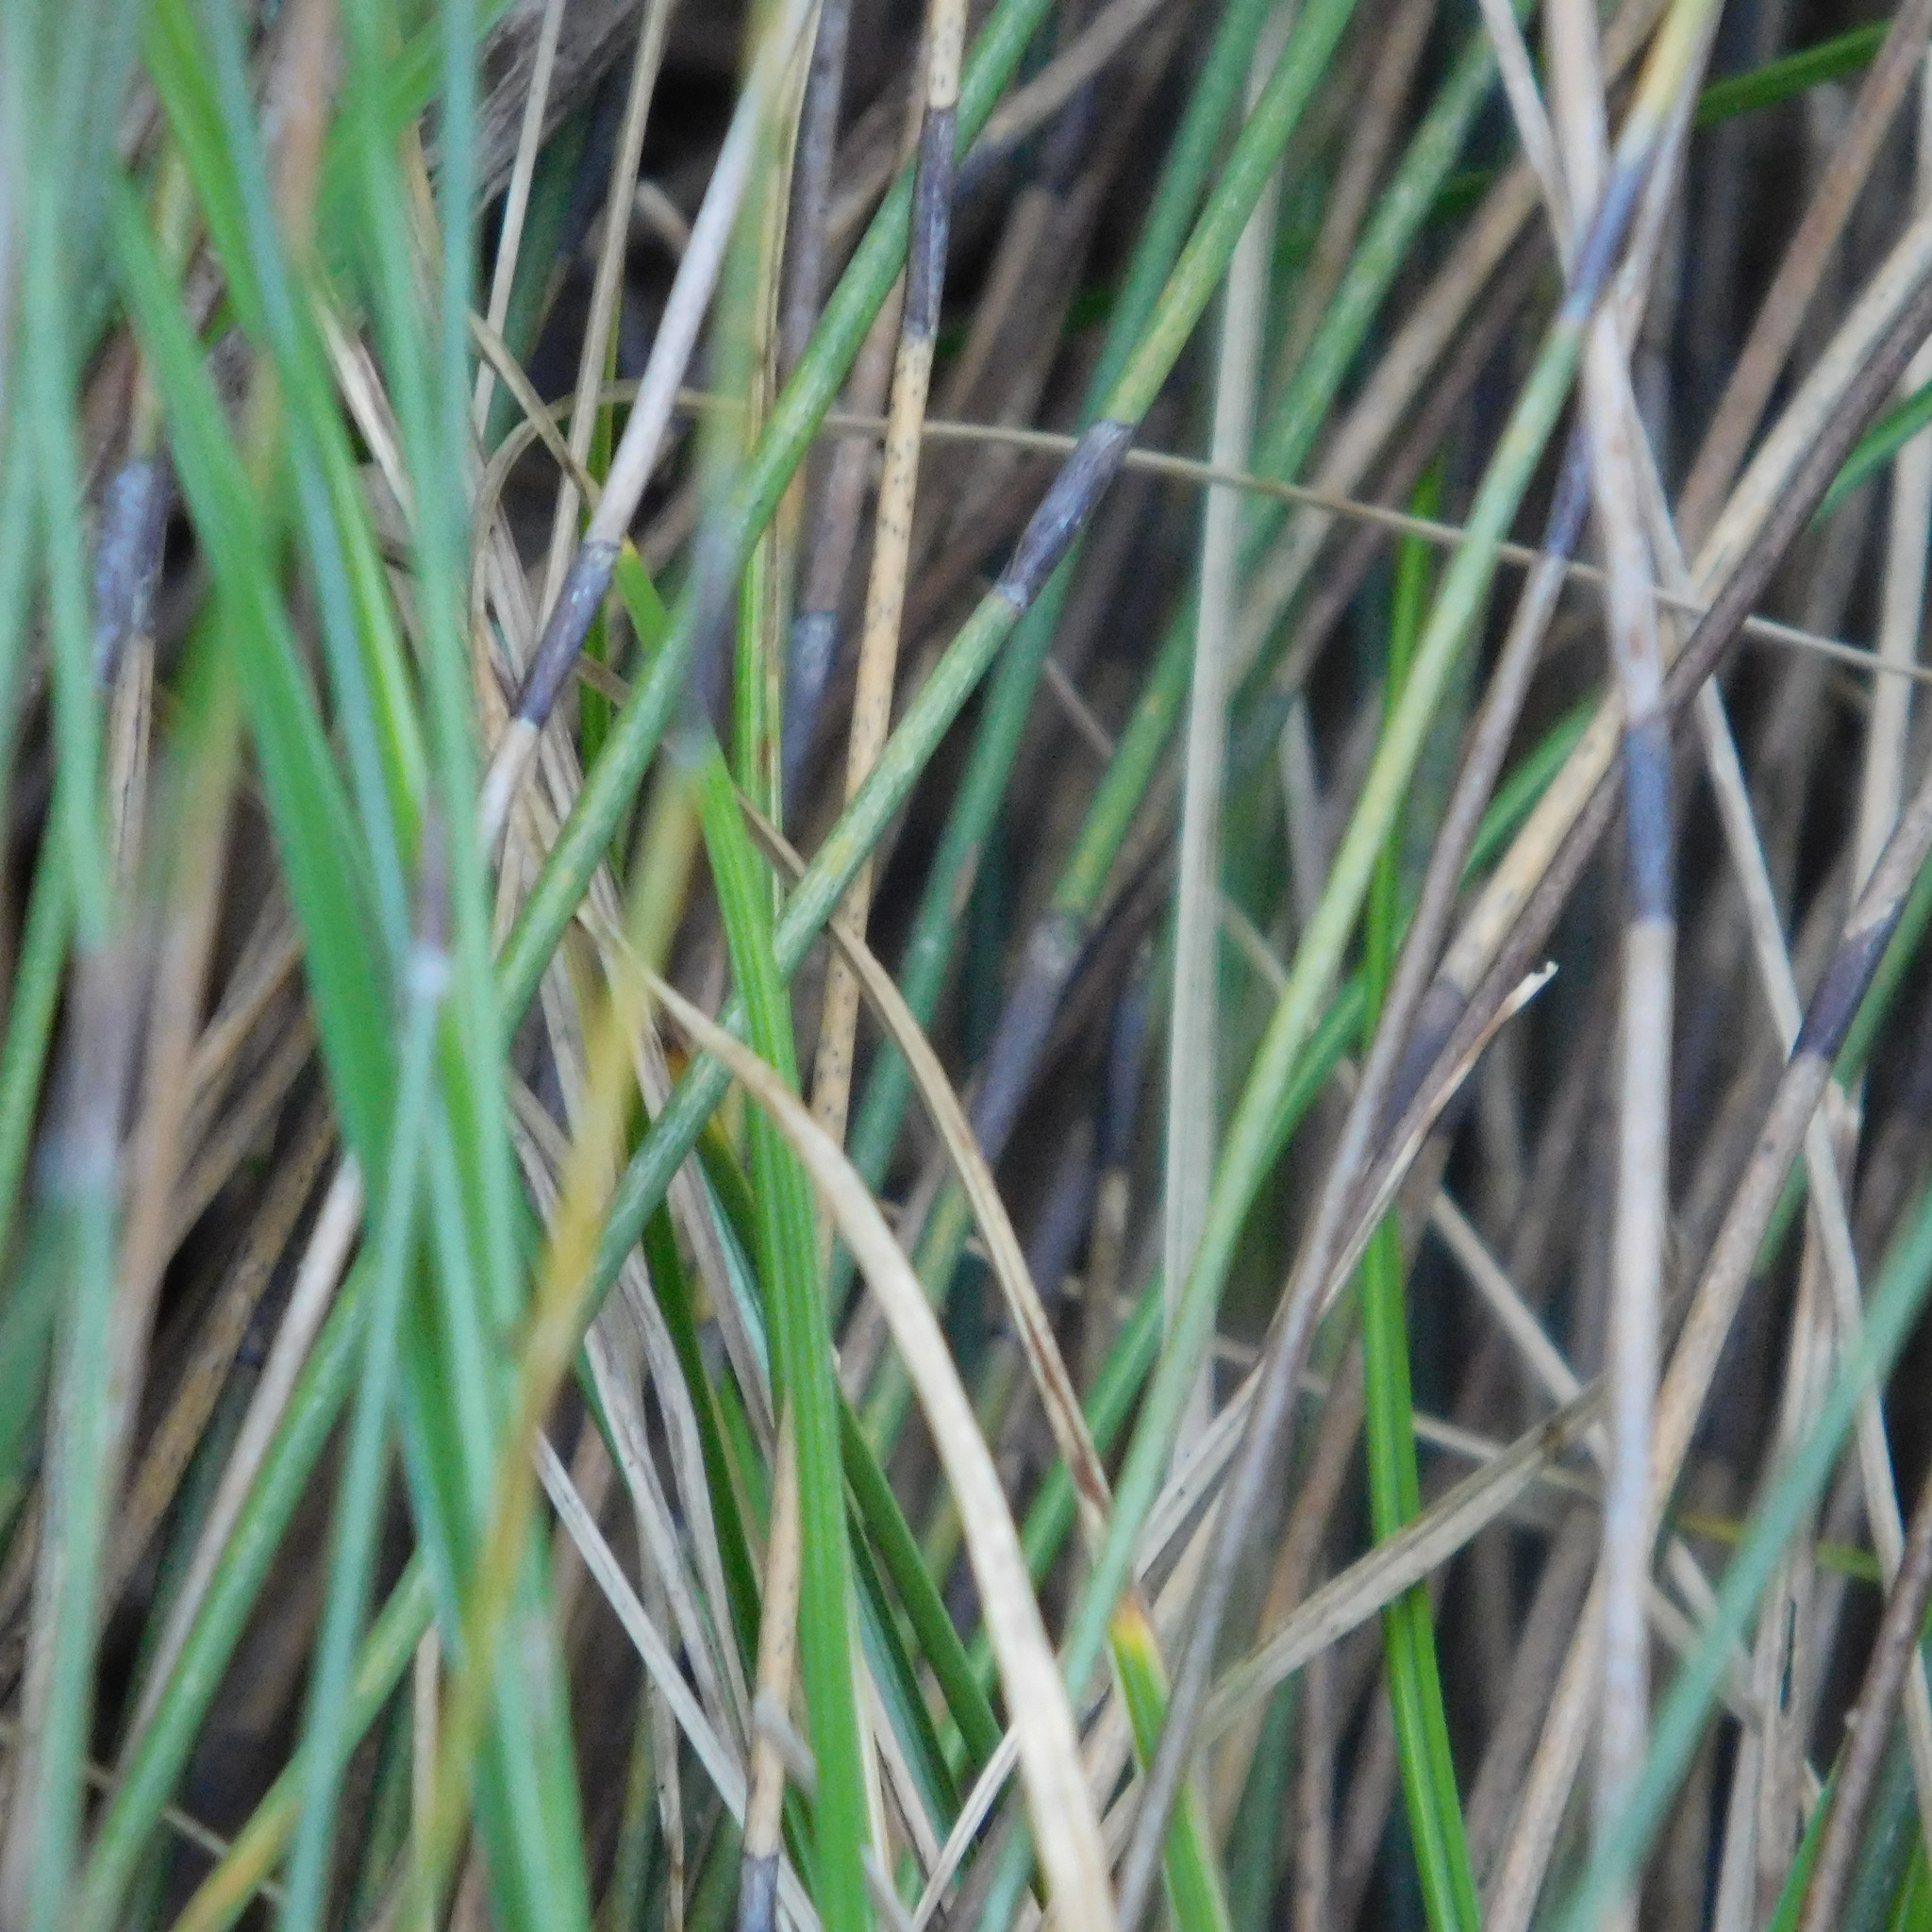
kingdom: Plantae
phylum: Tracheophyta
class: Liliopsida
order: Poales
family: Restionaceae
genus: Apodasmia
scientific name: Apodasmia similis
